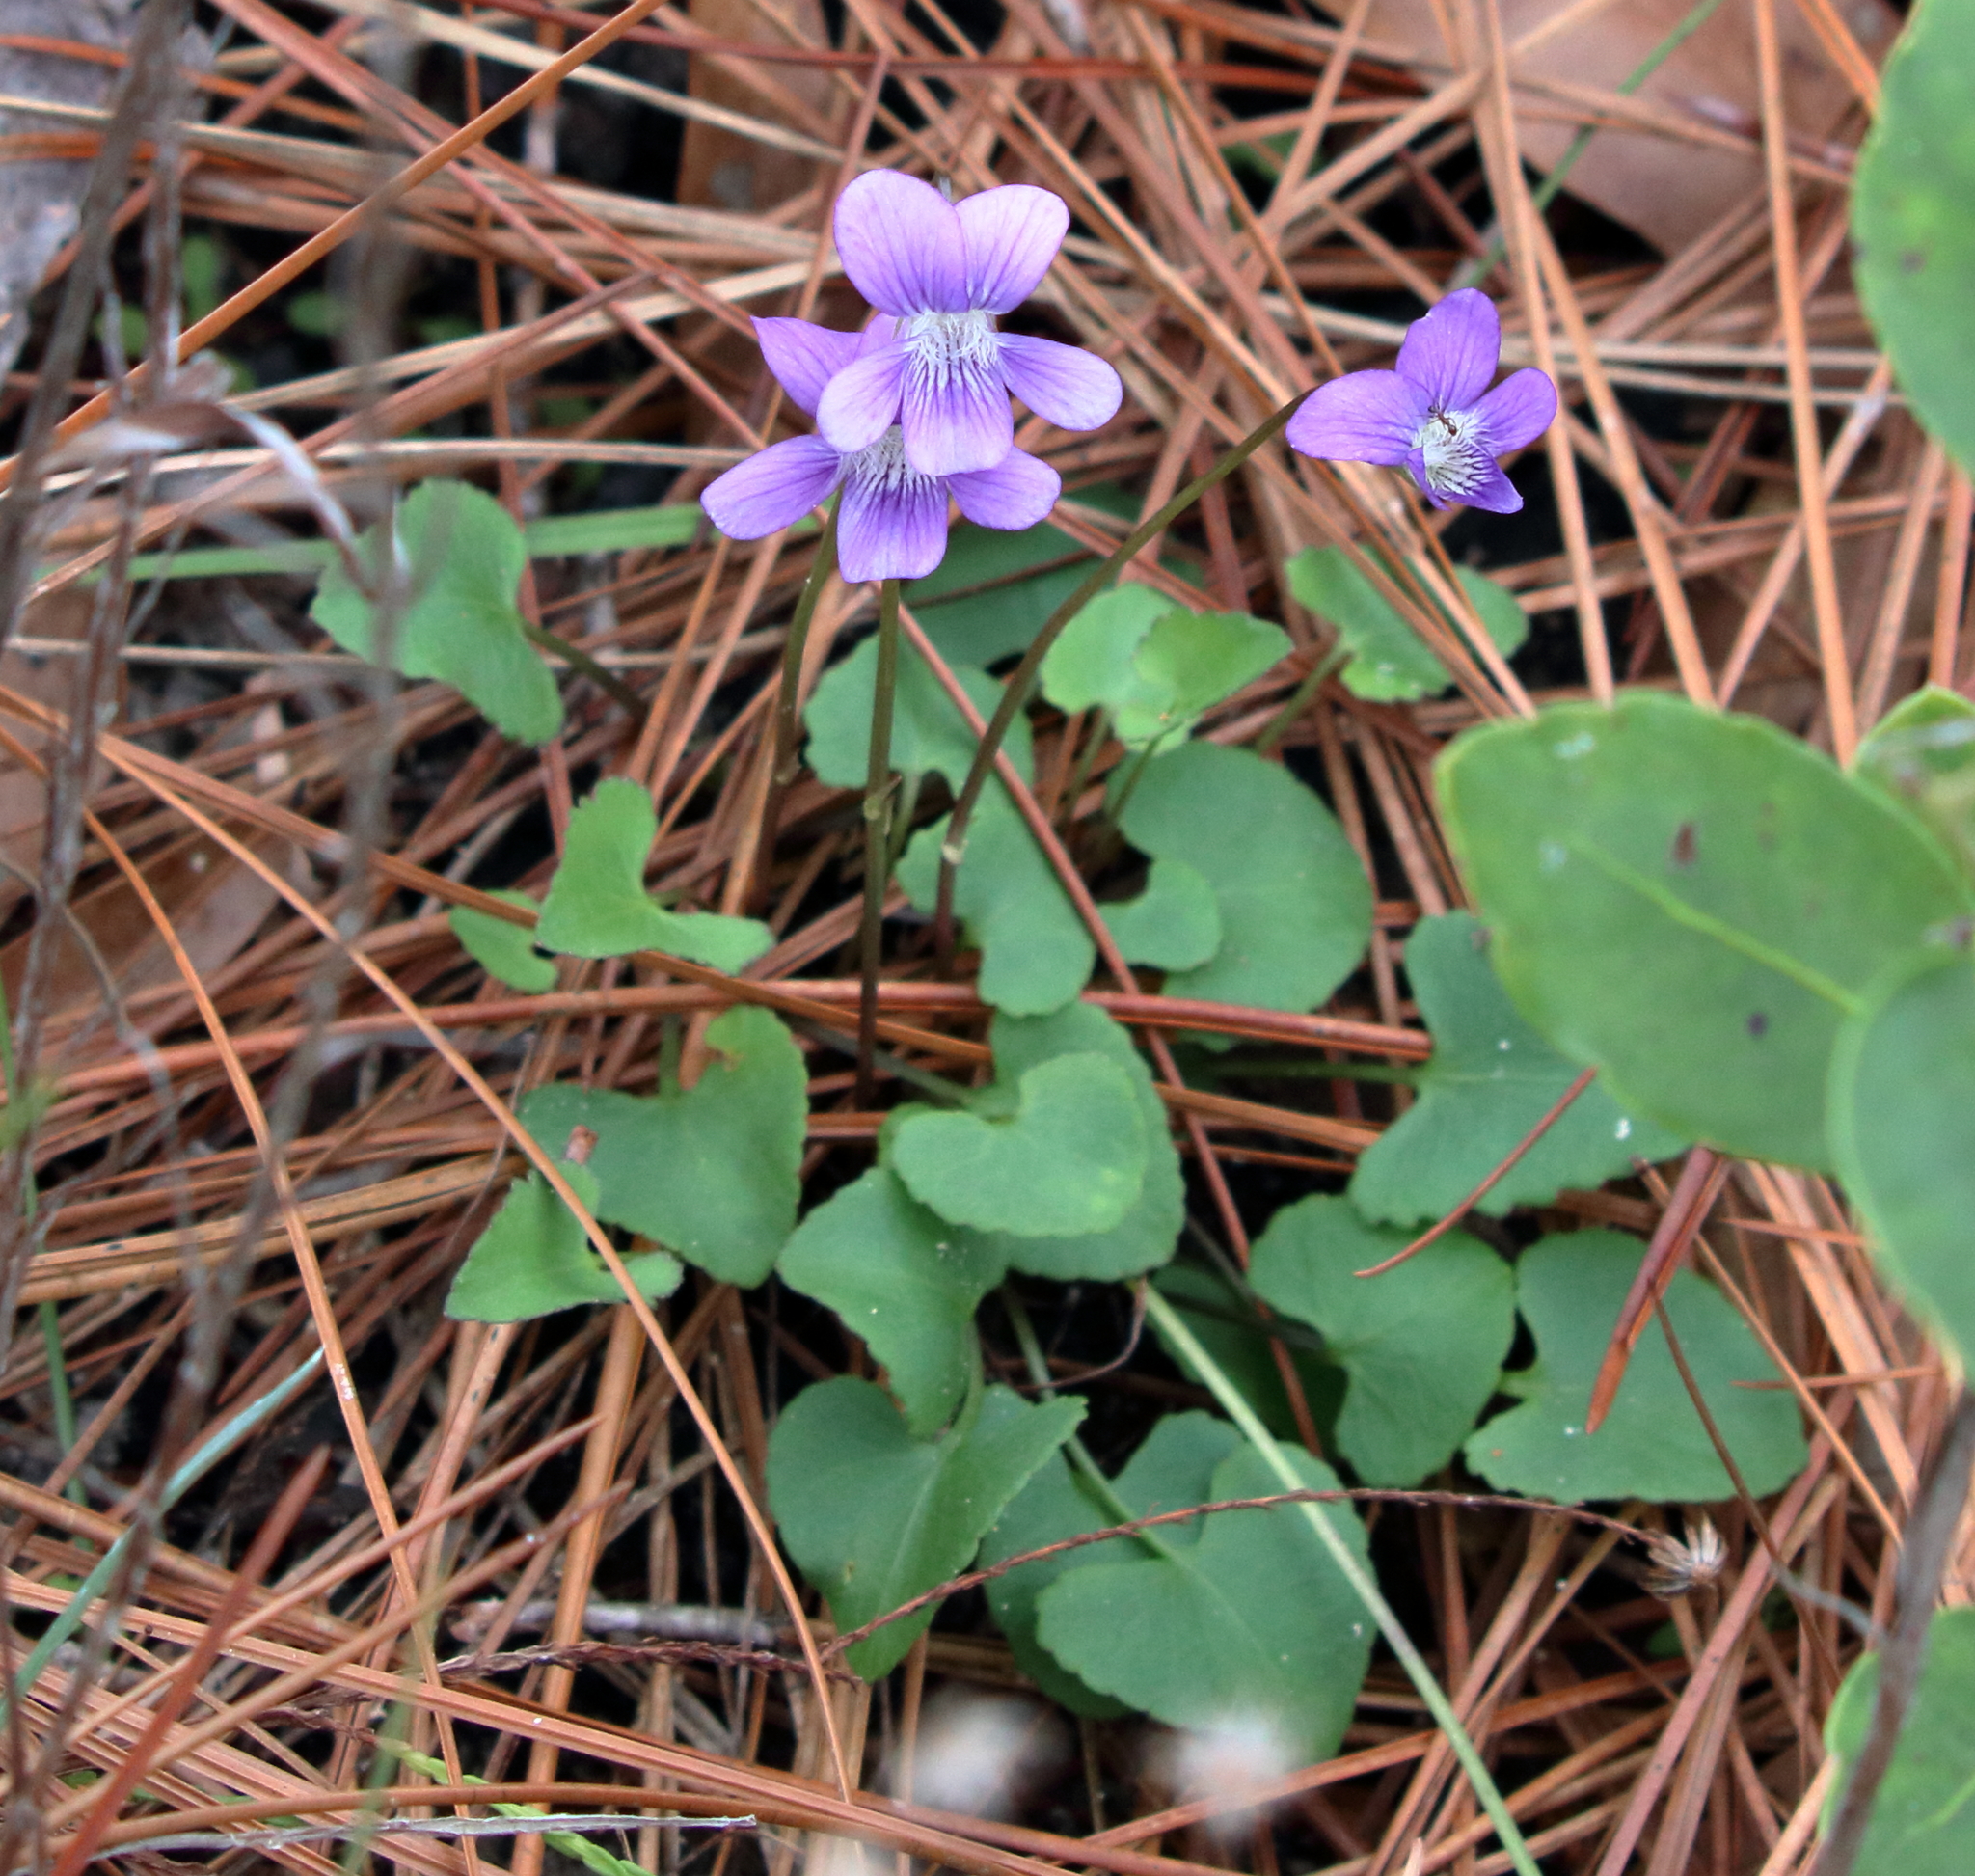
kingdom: Plantae
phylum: Tracheophyta
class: Magnoliopsida
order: Malpighiales
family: Violaceae
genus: Viola
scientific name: Viola septemloba
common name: Southern coast violet
